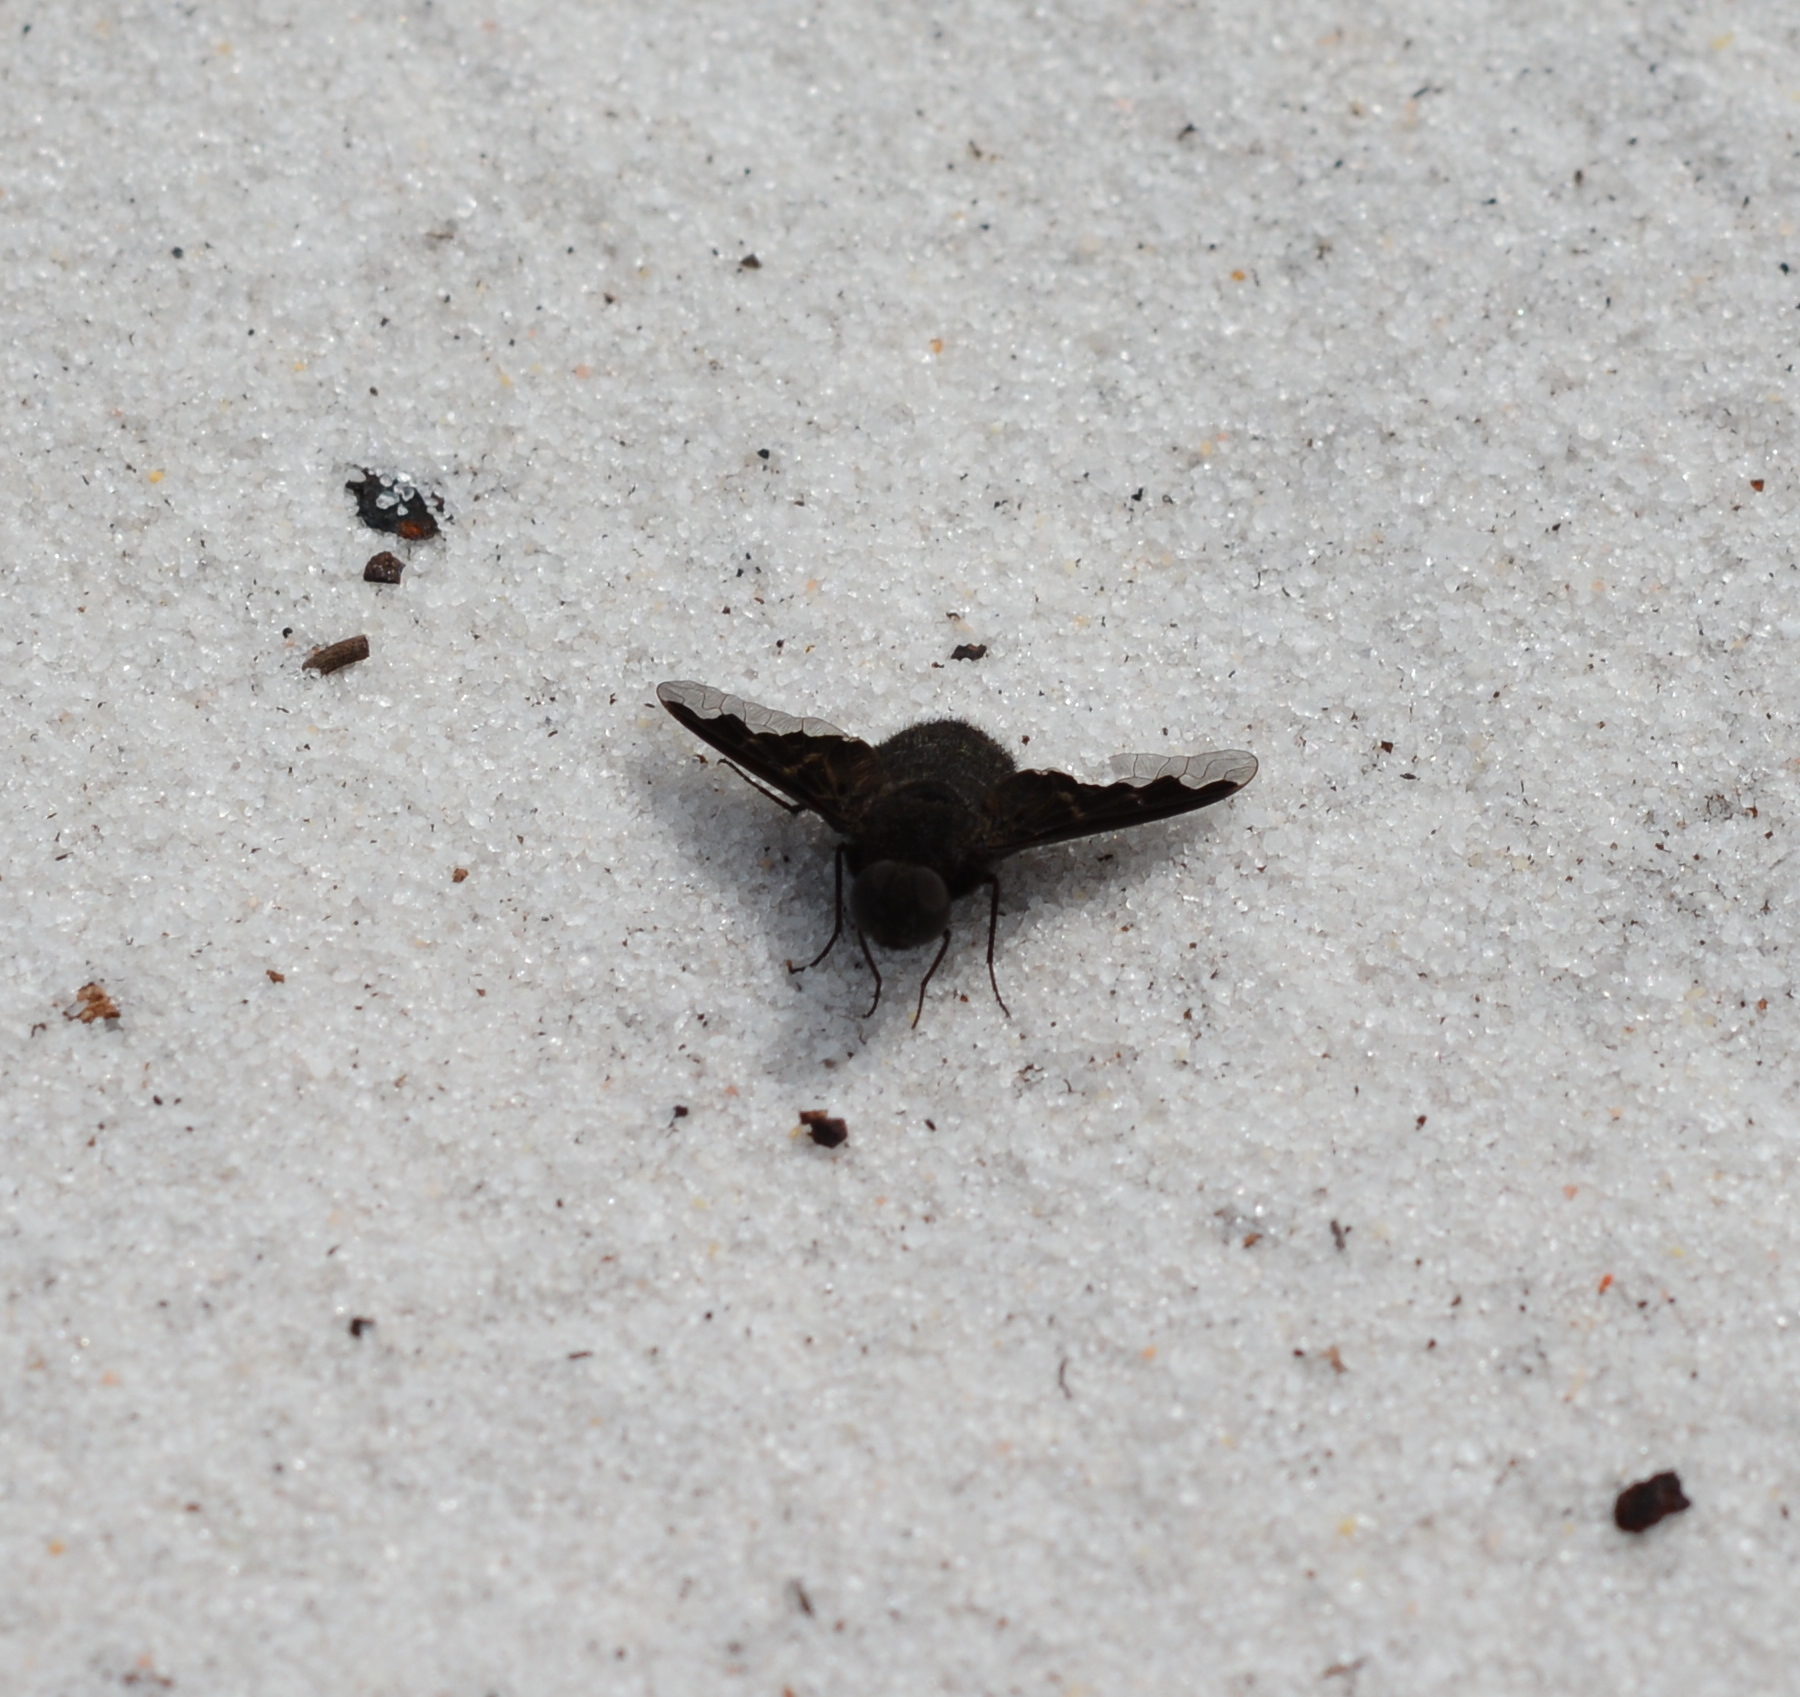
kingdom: Animalia
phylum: Arthropoda
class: Insecta
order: Diptera
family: Bombyliidae
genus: Anthrax
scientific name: Anthrax analis
